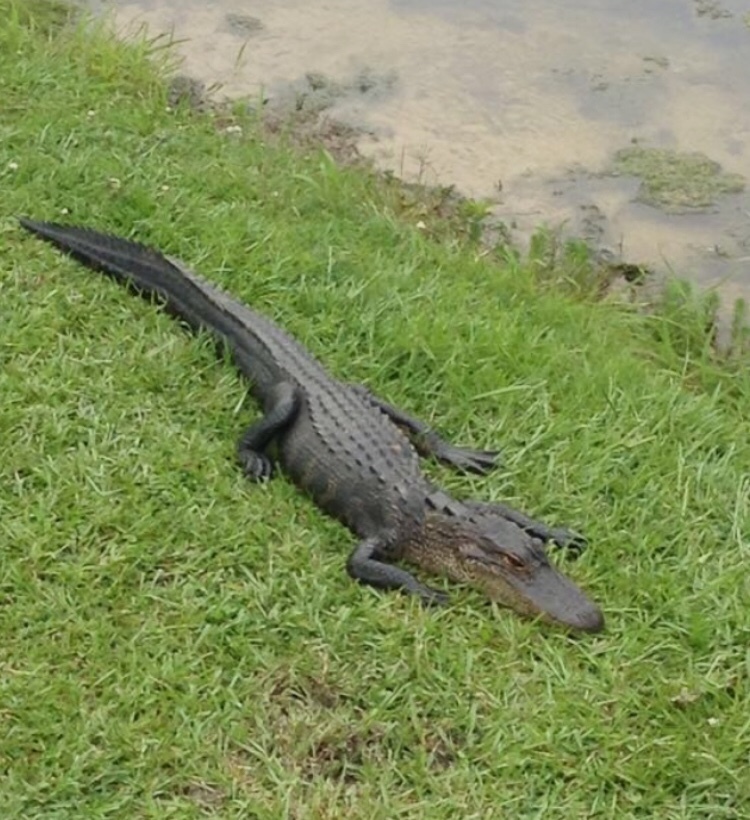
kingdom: Animalia
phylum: Chordata
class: Crocodylia
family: Alligatoridae
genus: Alligator
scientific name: Alligator mississippiensis
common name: American alligator
